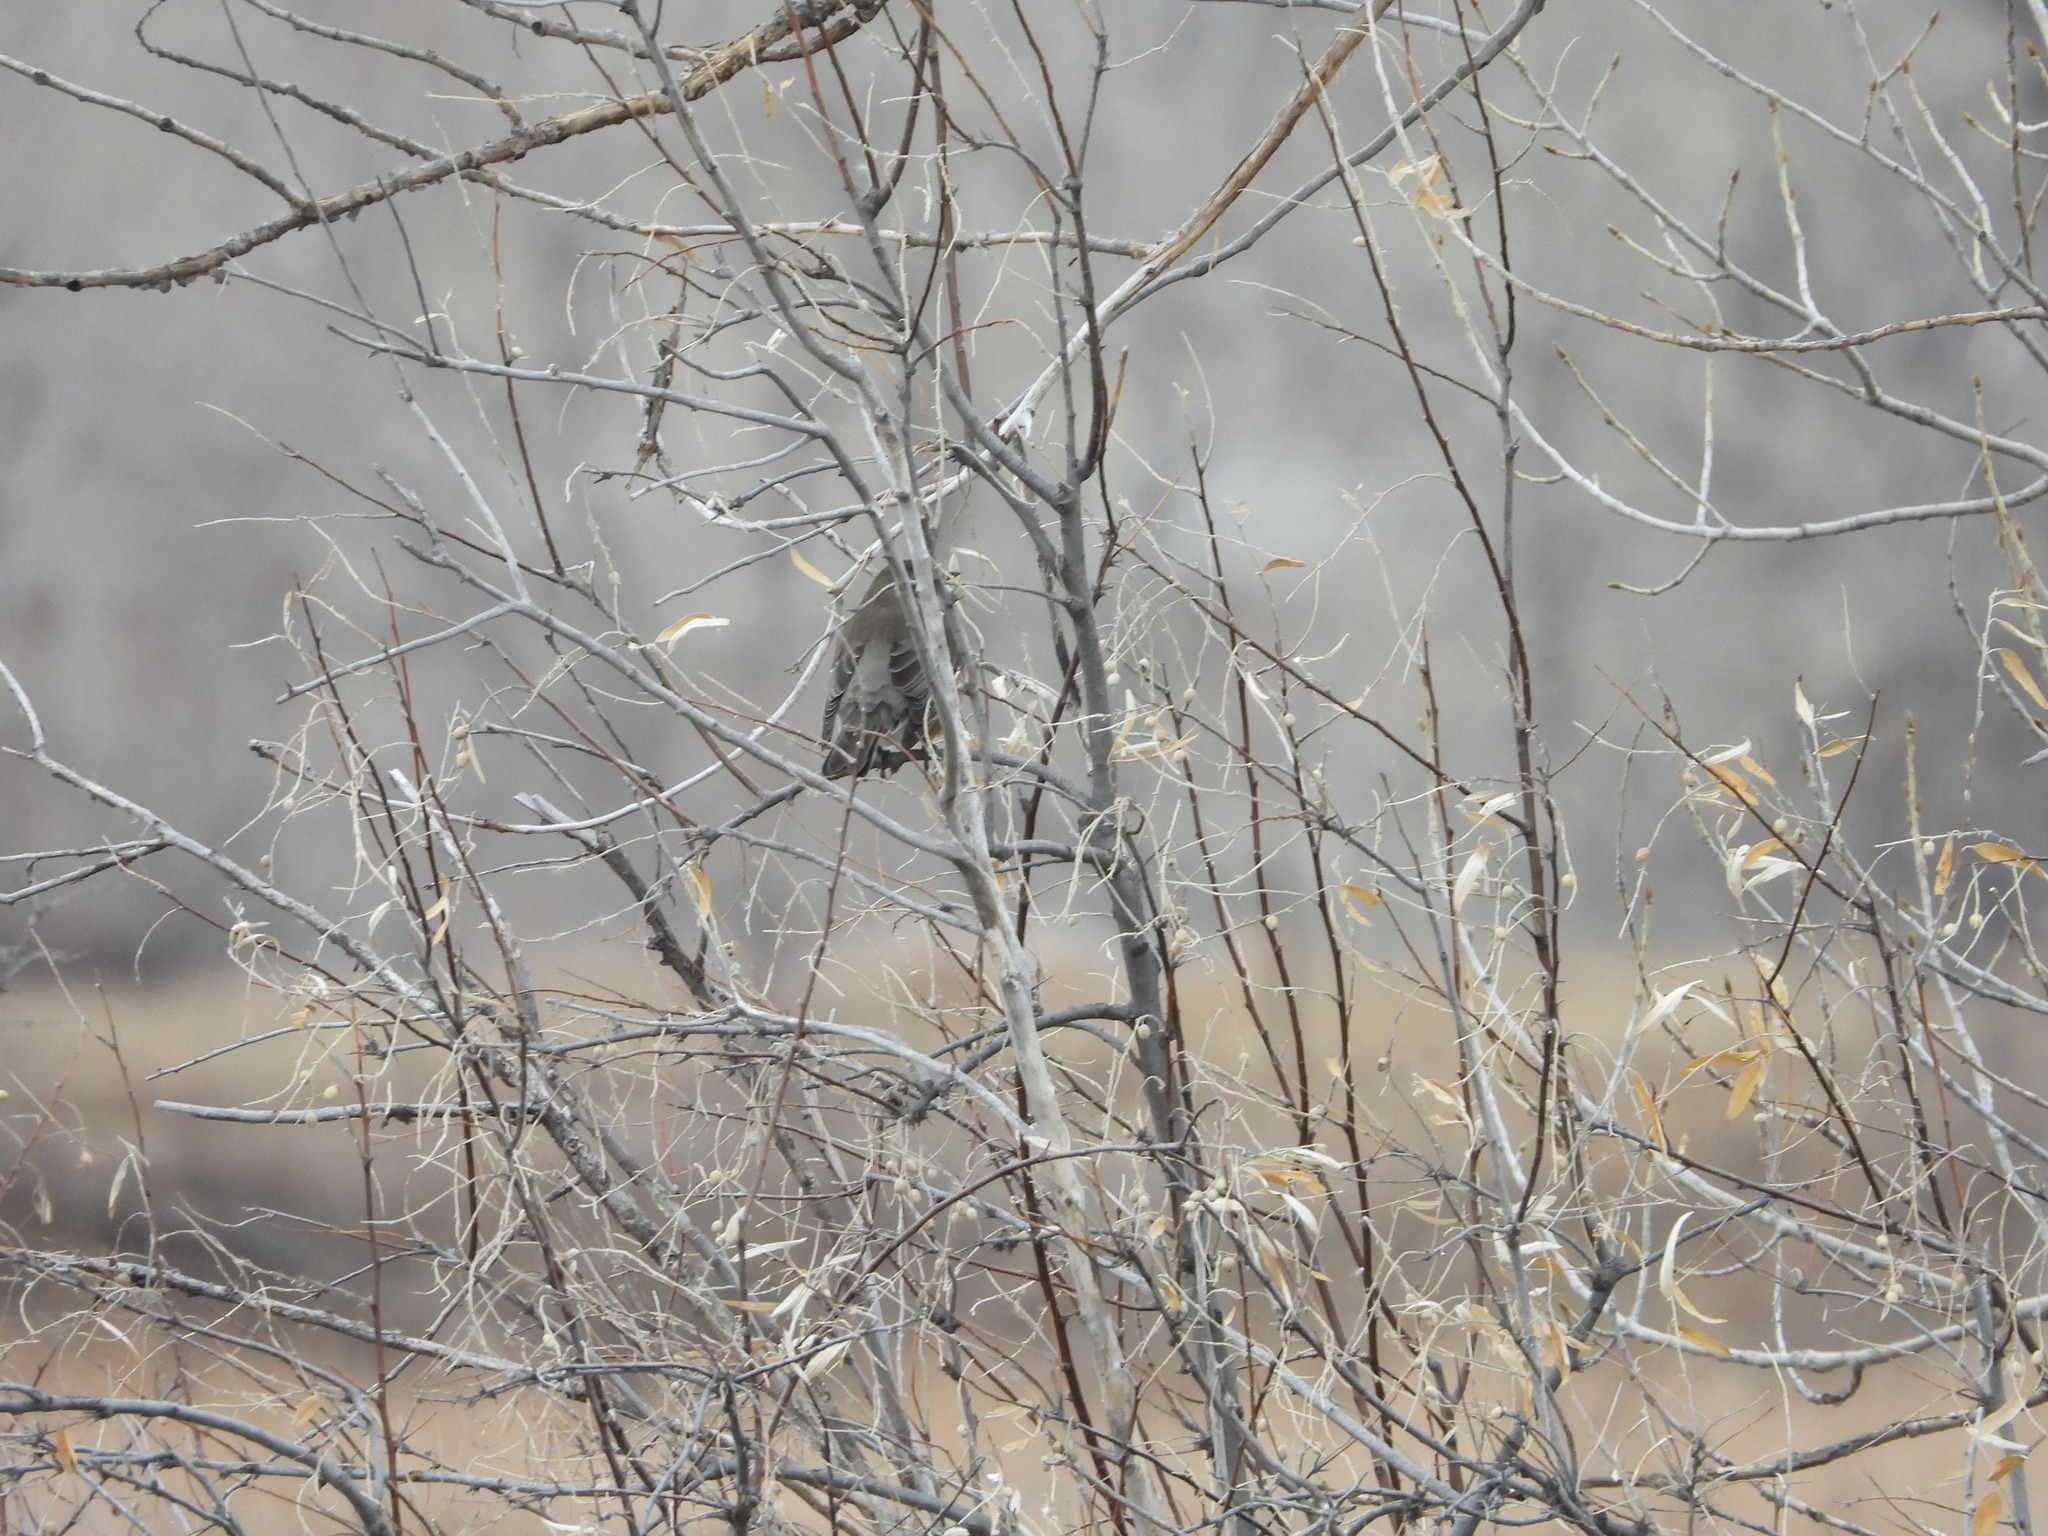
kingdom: Animalia
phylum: Chordata
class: Aves
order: Passeriformes
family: Turdidae
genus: Turdus
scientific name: Turdus migratorius
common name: American robin
